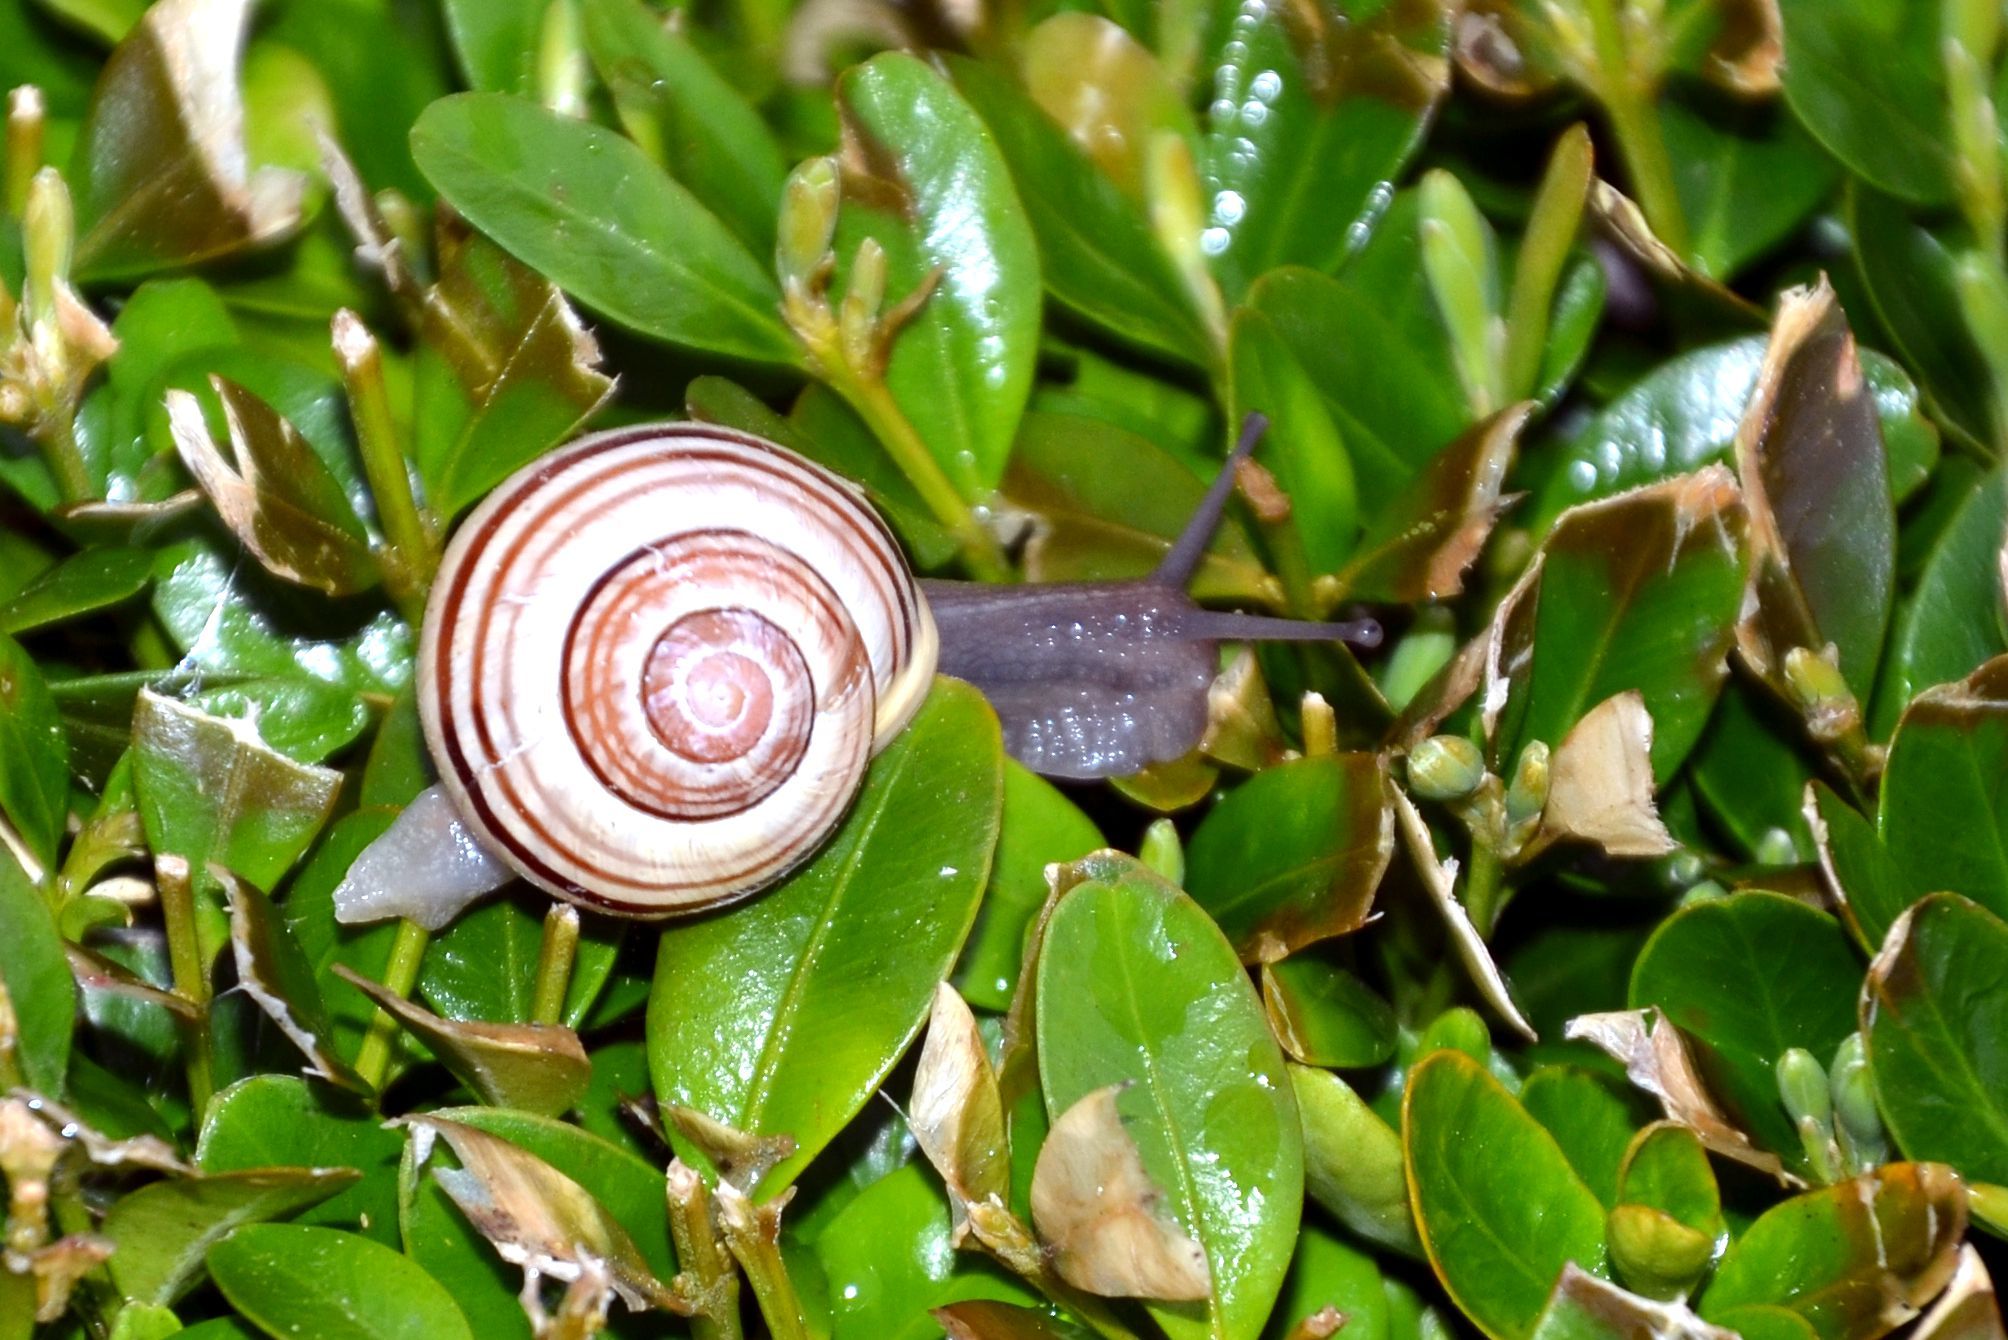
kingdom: Animalia
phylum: Mollusca
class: Gastropoda
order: Stylommatophora
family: Helicidae
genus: Cepaea
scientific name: Cepaea hortensis
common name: White-lip gardensnail
